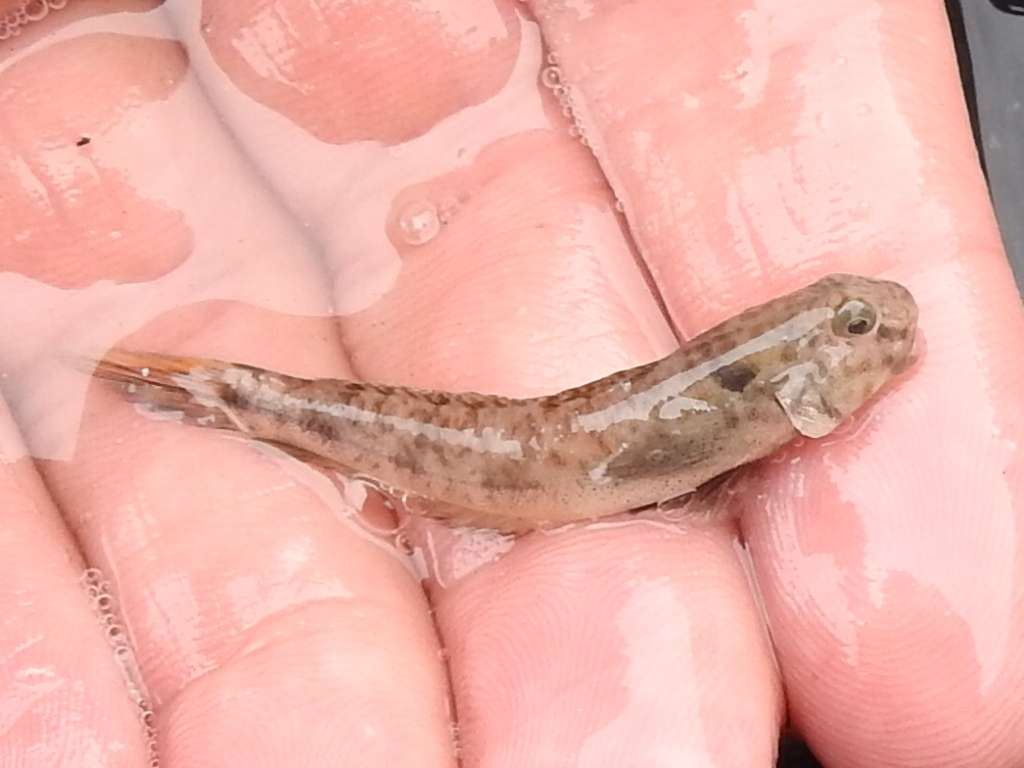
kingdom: Animalia
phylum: Chordata
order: Perciformes
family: Gobiidae
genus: Ctenogobius
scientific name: Ctenogobius boleosoma
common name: Darter goby
